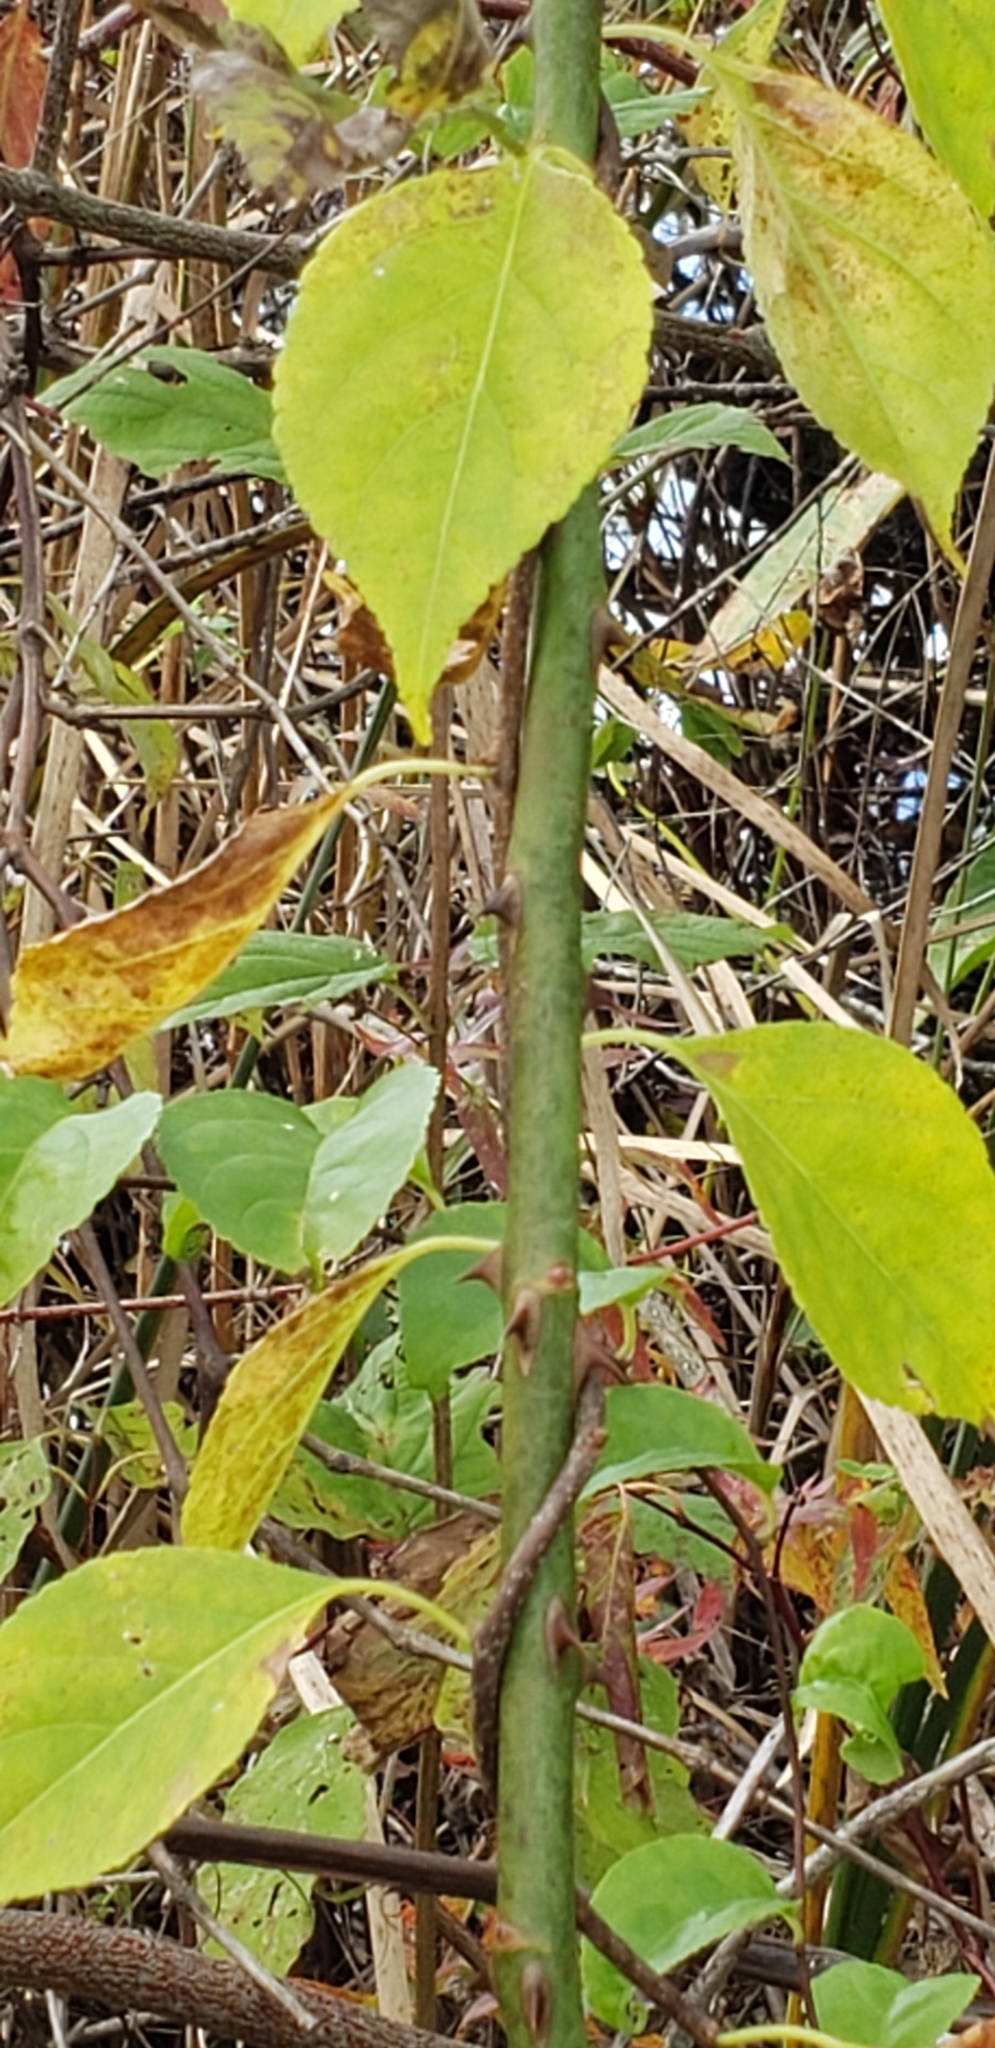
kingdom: Plantae
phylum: Tracheophyta
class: Magnoliopsida
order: Celastrales
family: Celastraceae
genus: Celastrus
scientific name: Celastrus orbiculatus
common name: Oriental bittersweet
